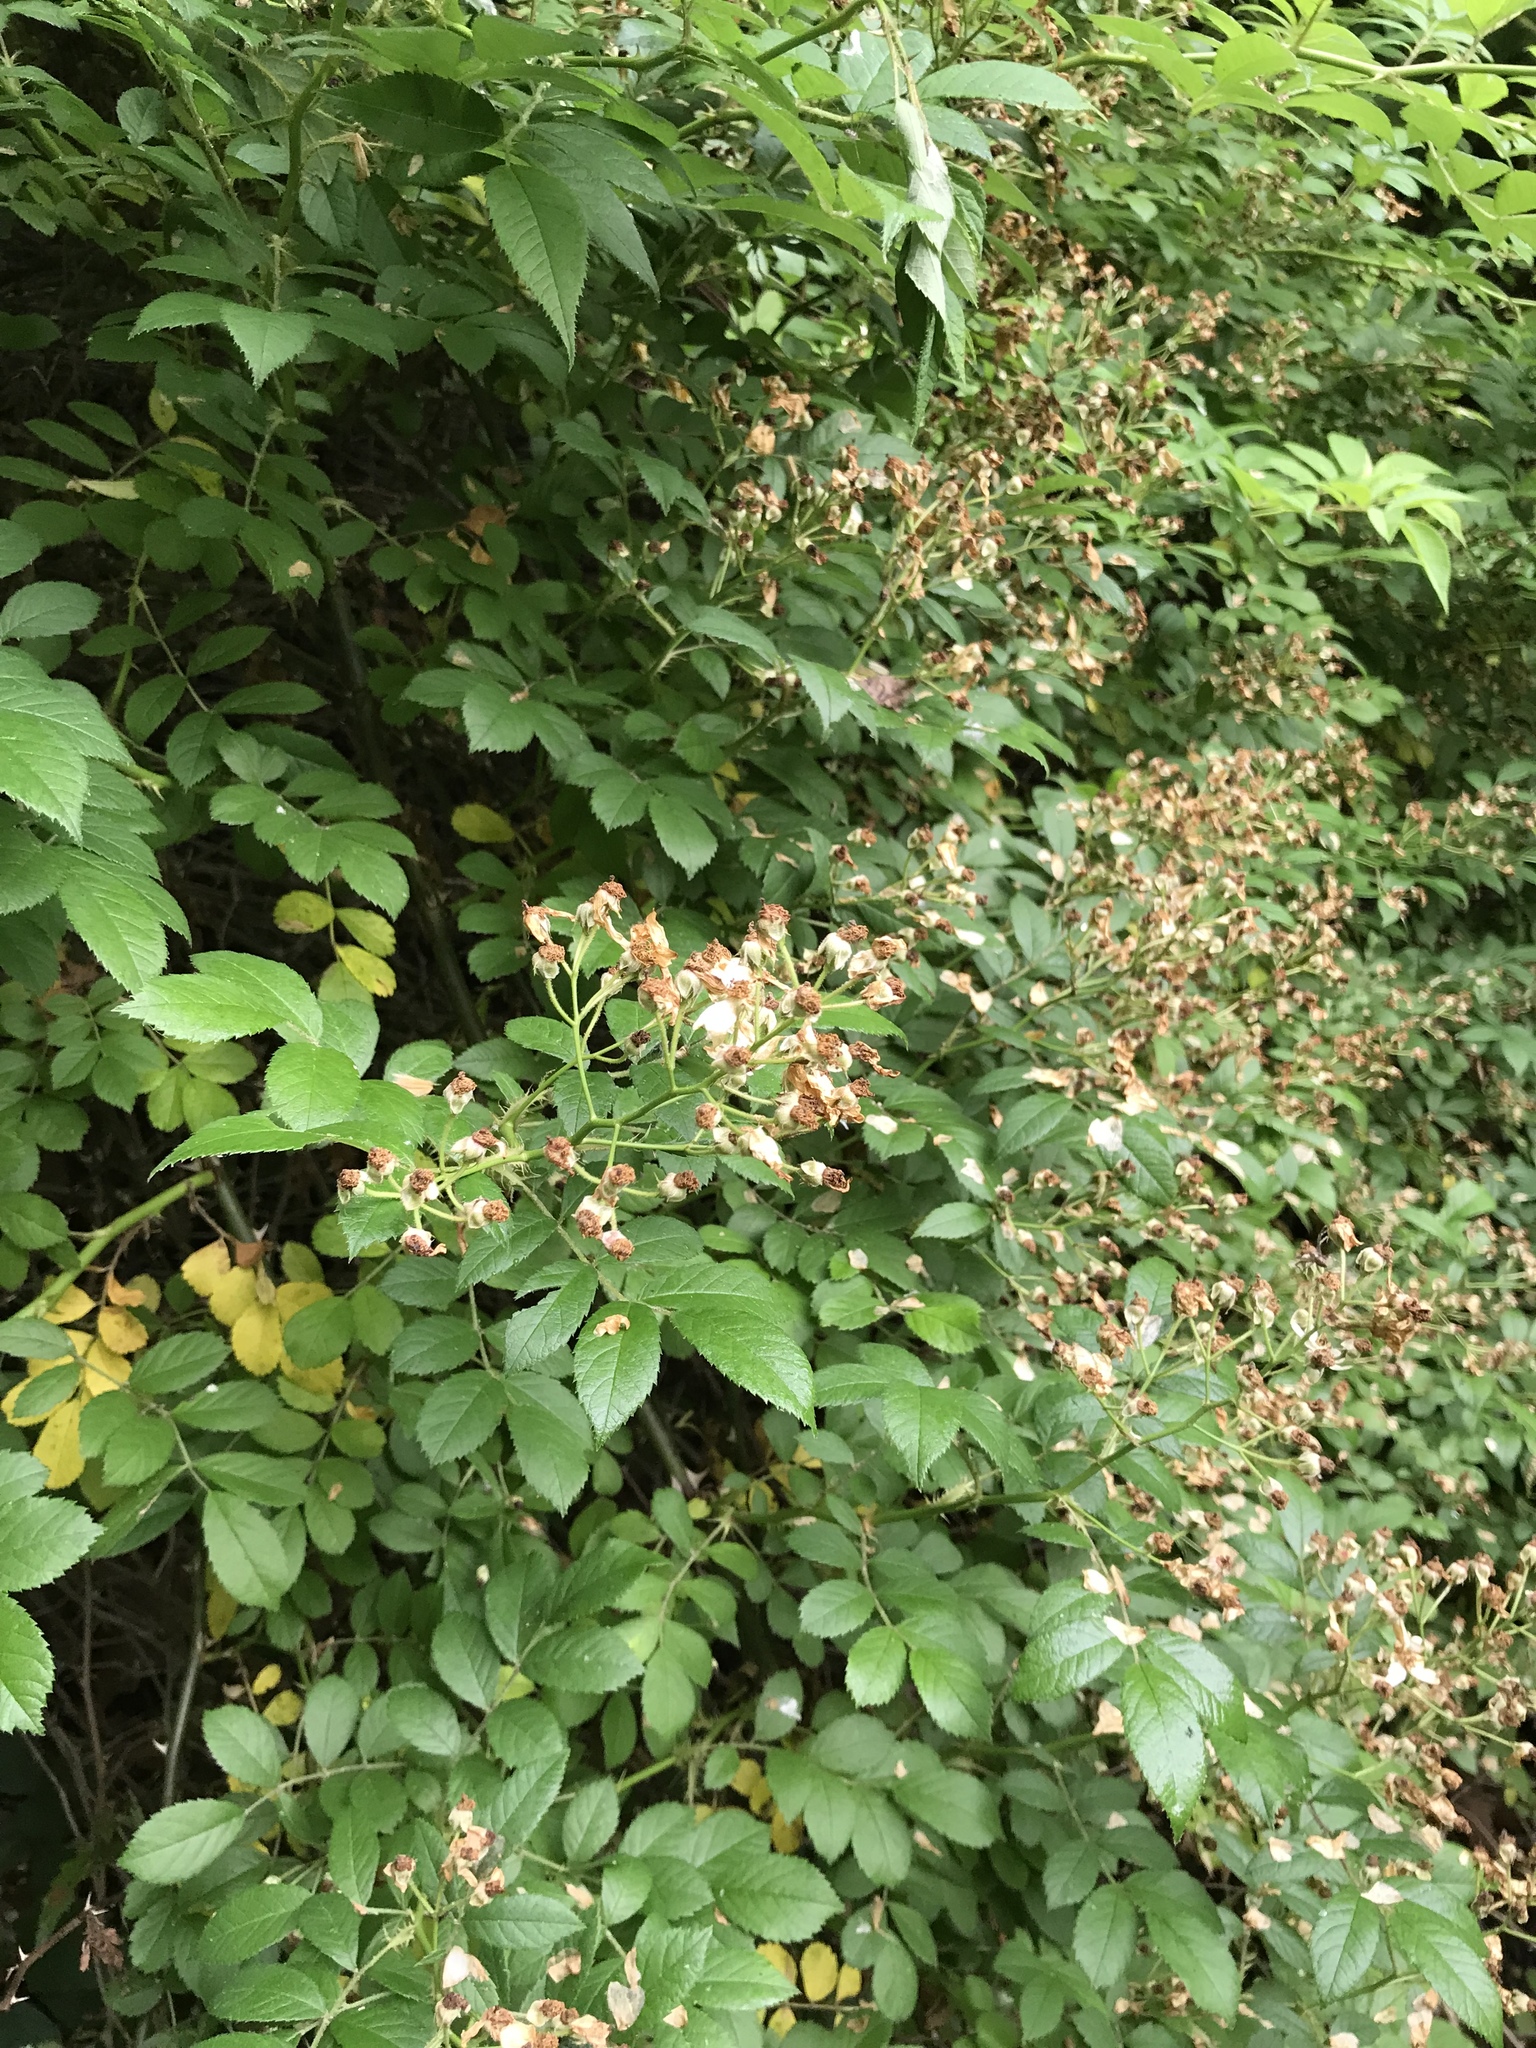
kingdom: Plantae
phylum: Tracheophyta
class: Magnoliopsida
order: Rosales
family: Rosaceae
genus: Rosa
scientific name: Rosa multiflora
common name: Multiflora rose
